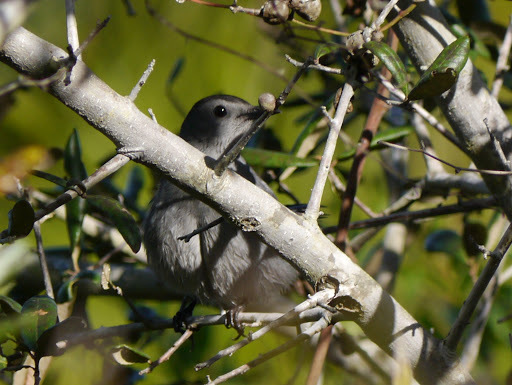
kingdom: Animalia
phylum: Chordata
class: Aves
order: Passeriformes
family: Mimidae
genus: Dumetella
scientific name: Dumetella carolinensis
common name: Gray catbird
